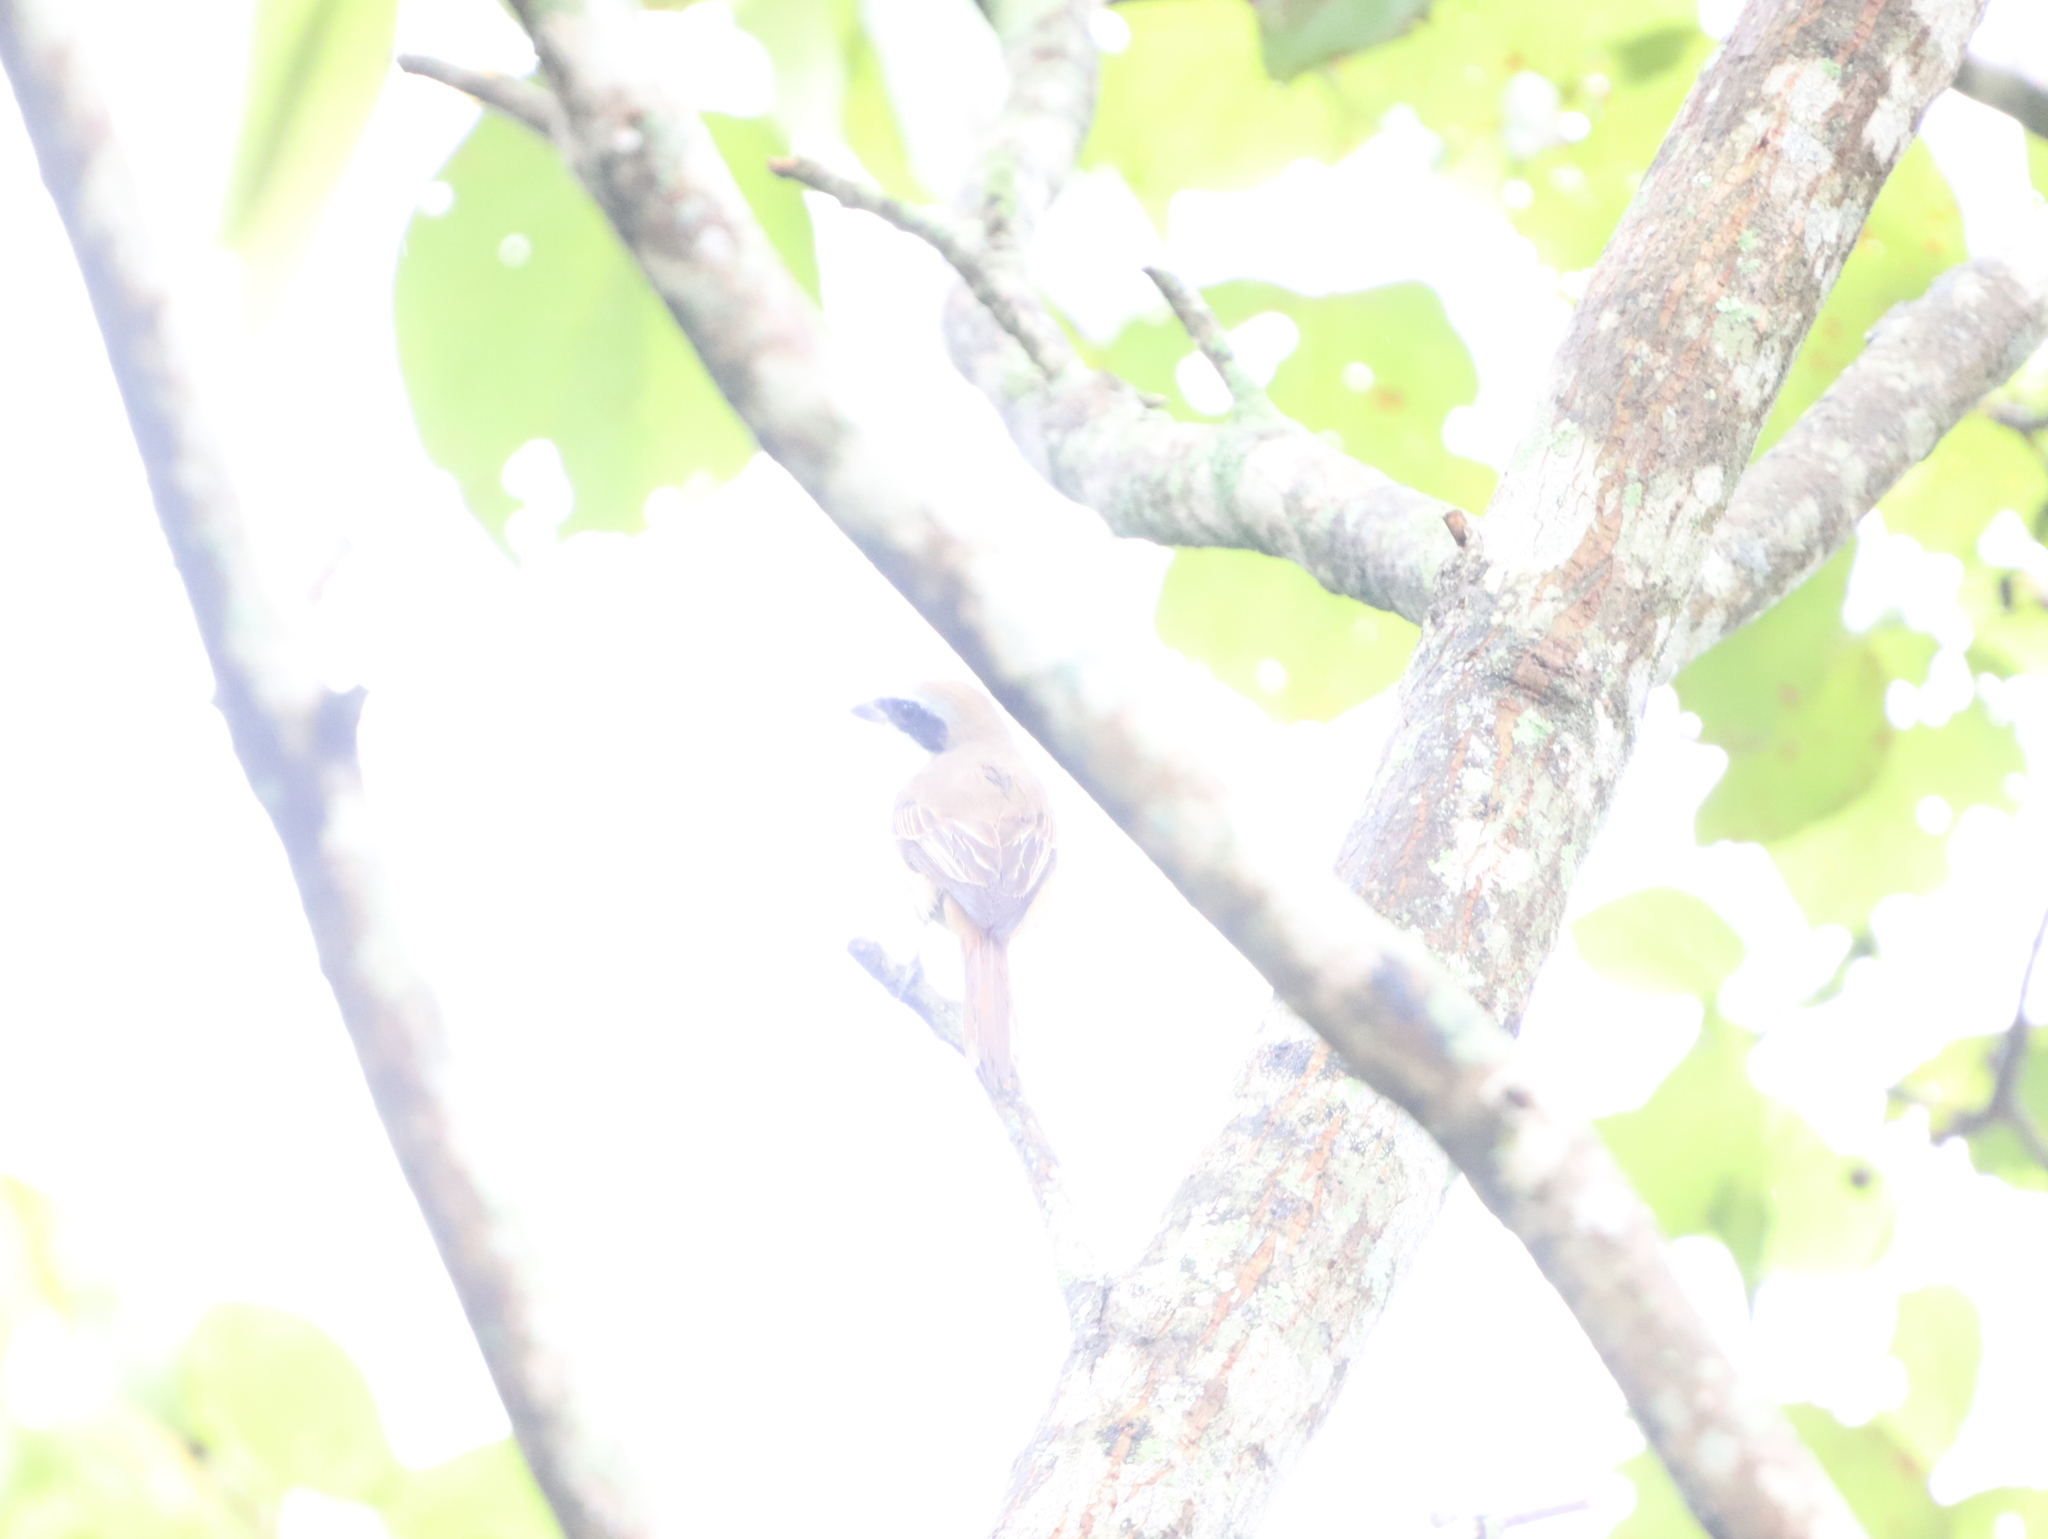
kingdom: Animalia
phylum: Chordata
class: Aves
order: Passeriformes
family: Laniidae
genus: Lanius
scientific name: Lanius cristatus
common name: Brown shrike
